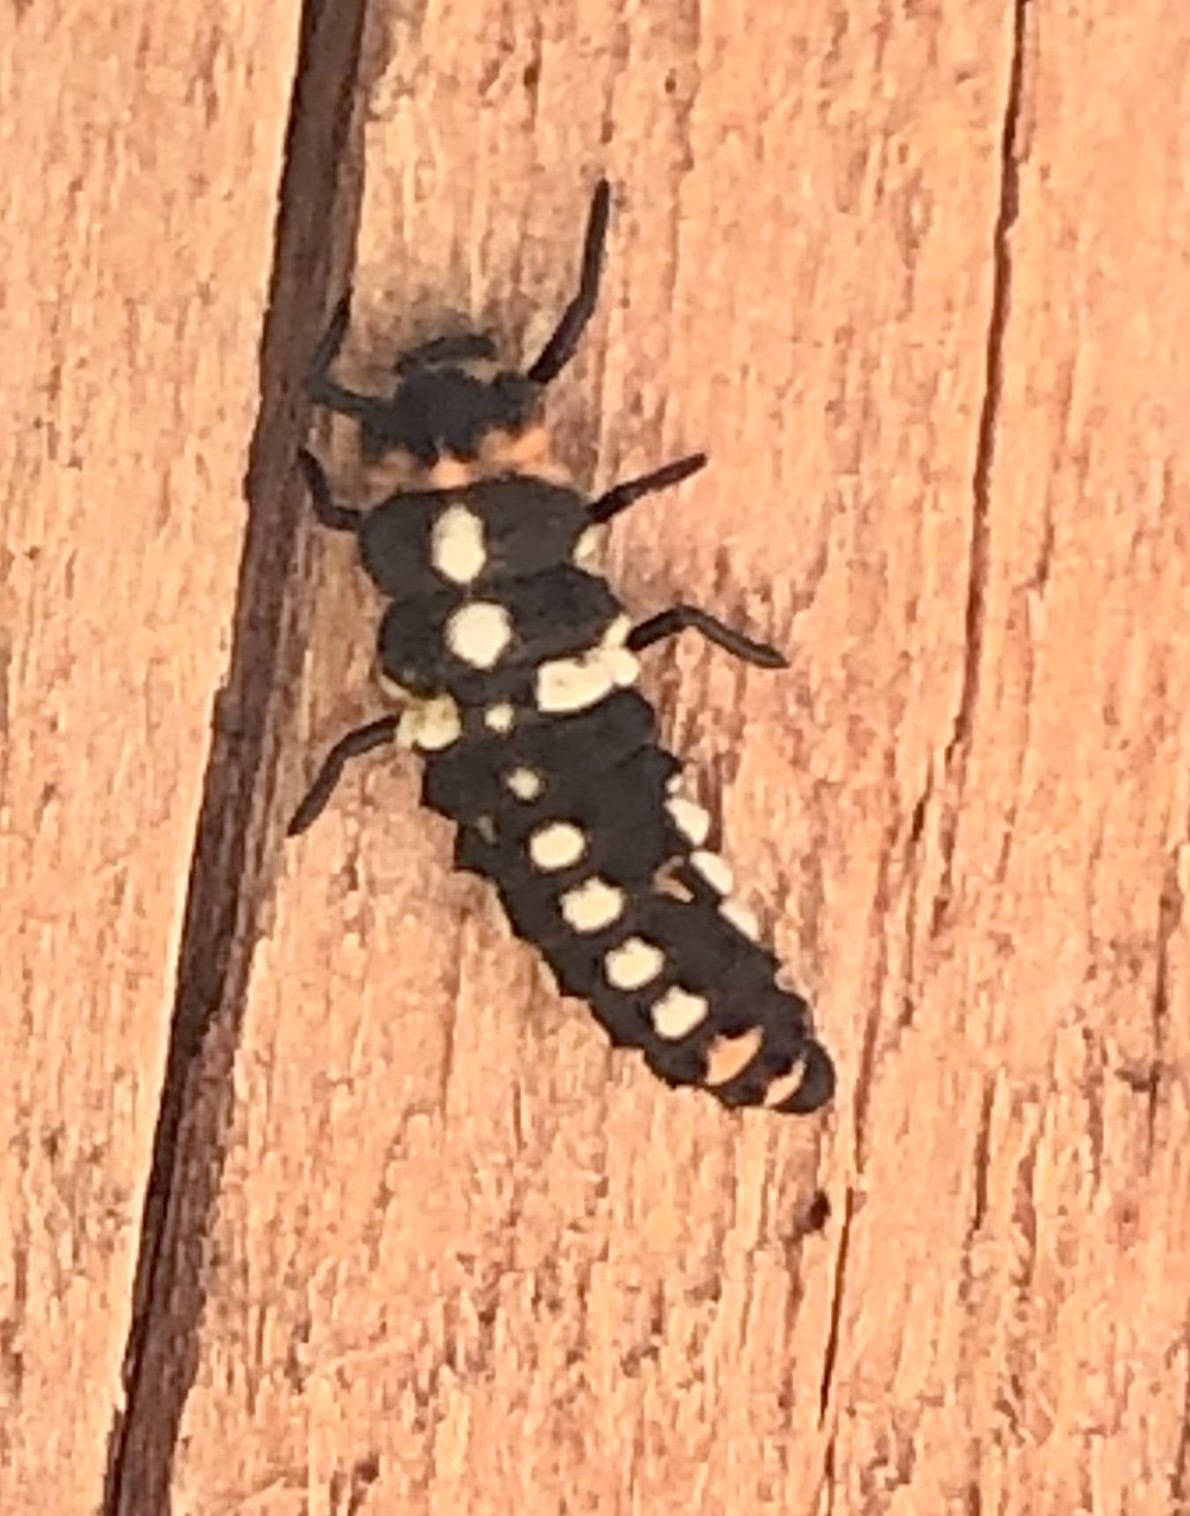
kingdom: Animalia
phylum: Arthropoda
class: Insecta
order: Coleoptera
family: Coccinellidae
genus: Eriopis
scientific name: Eriopis connexa
